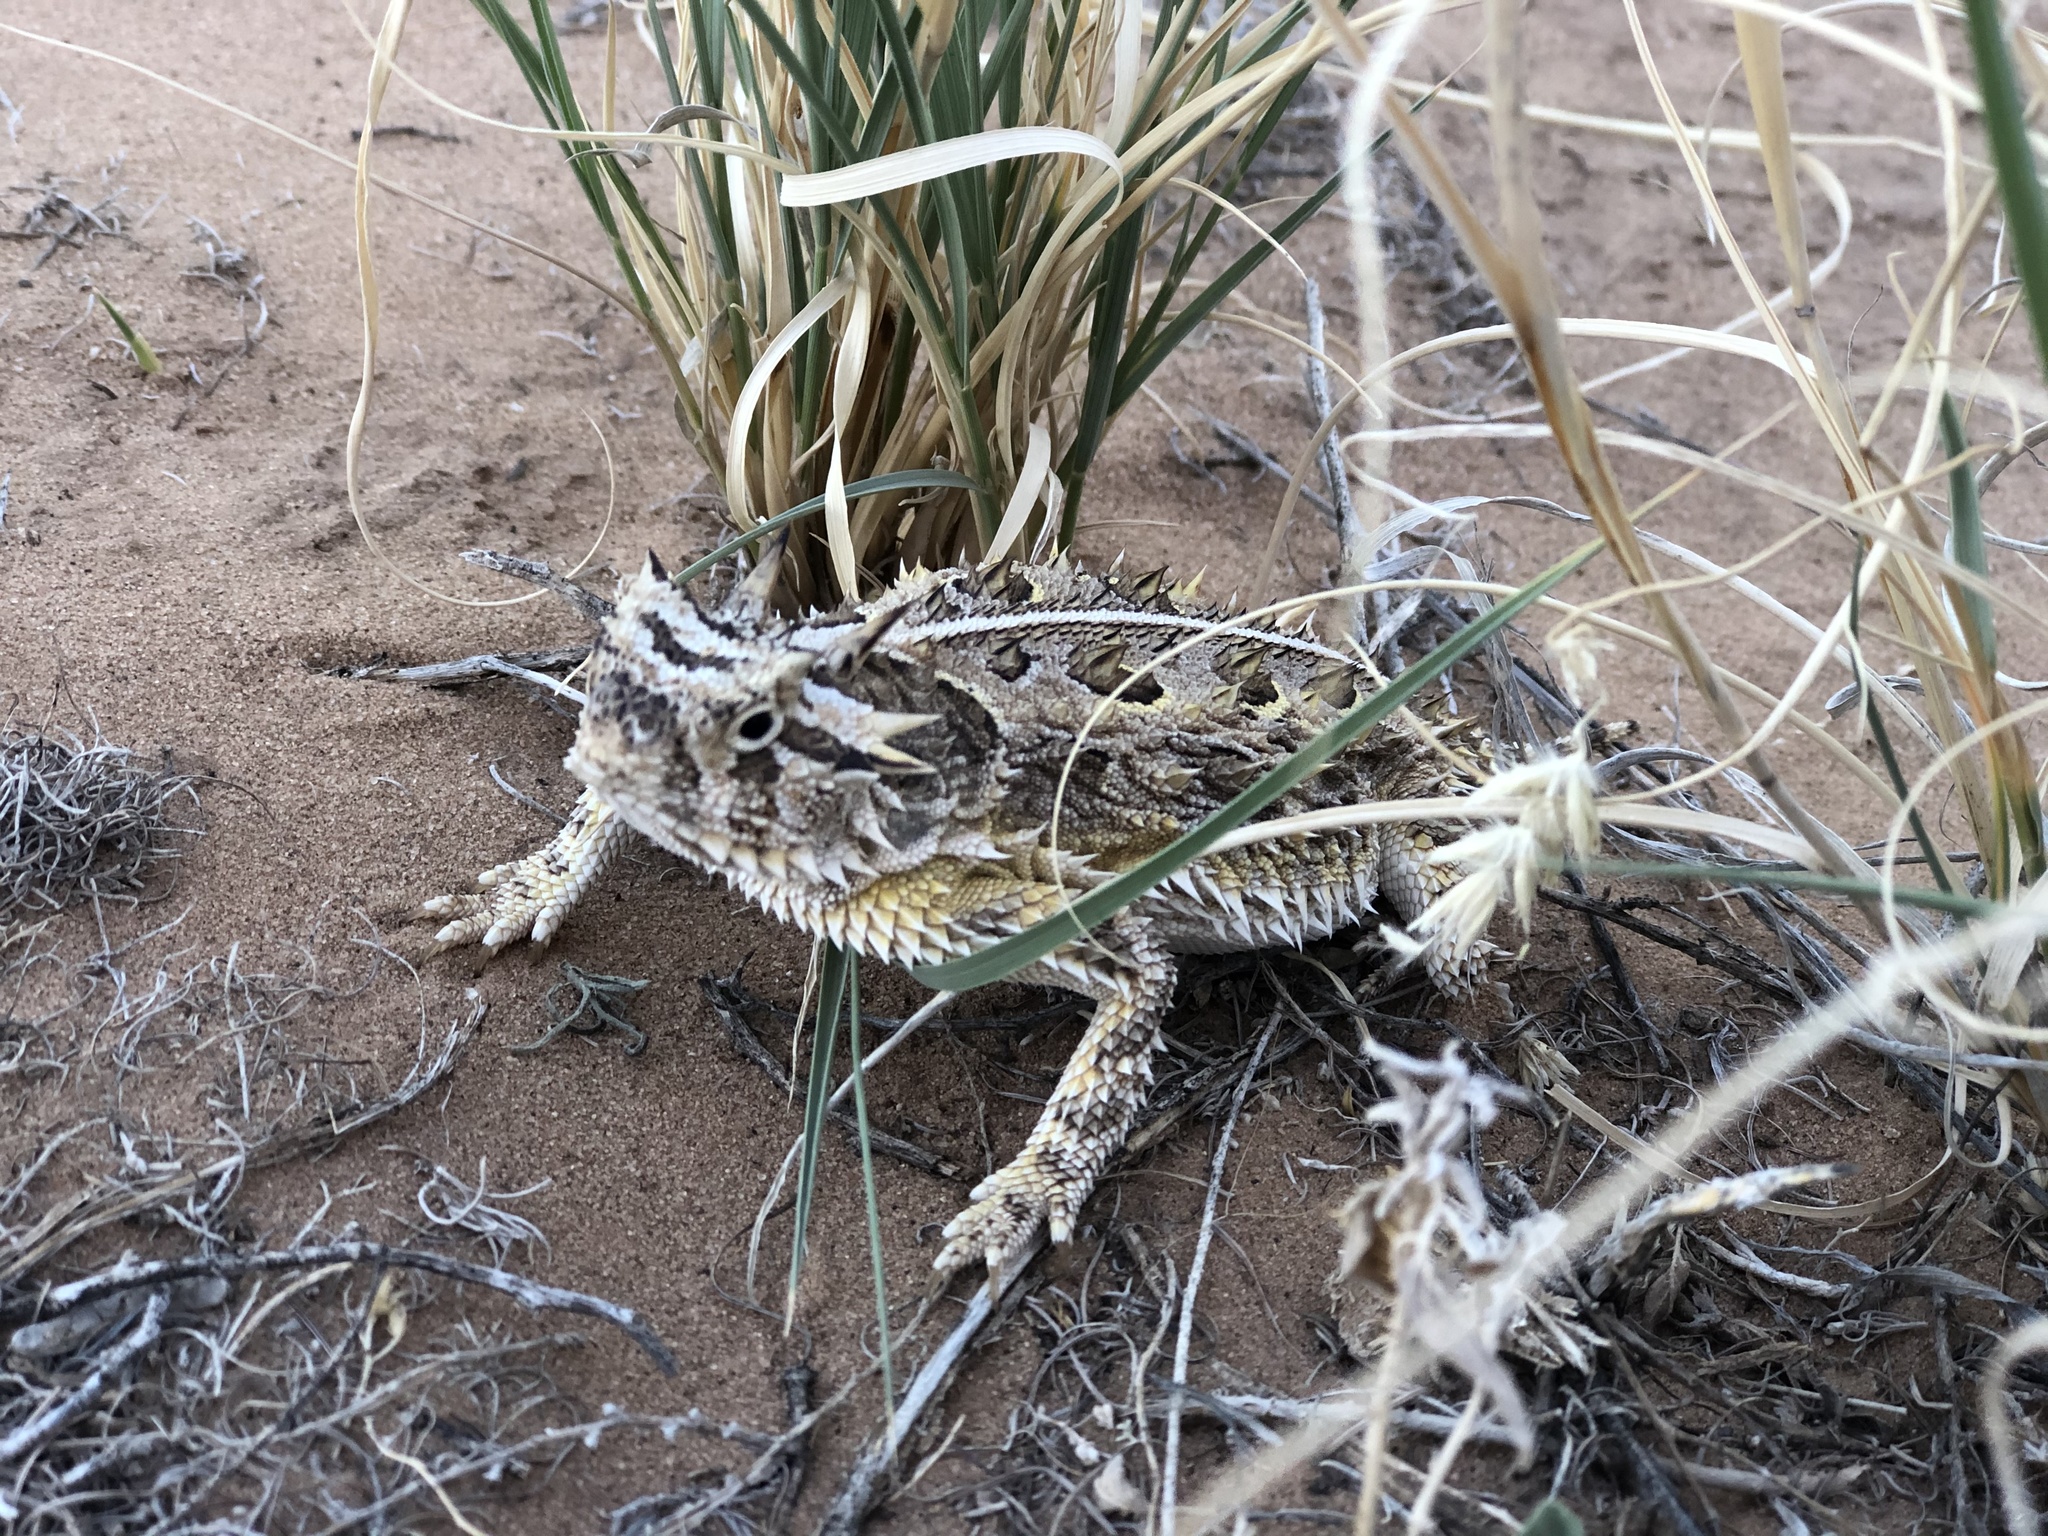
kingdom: Animalia
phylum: Chordata
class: Squamata
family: Phrynosomatidae
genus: Phrynosoma
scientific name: Phrynosoma cornutum
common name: Texas horned lizard
